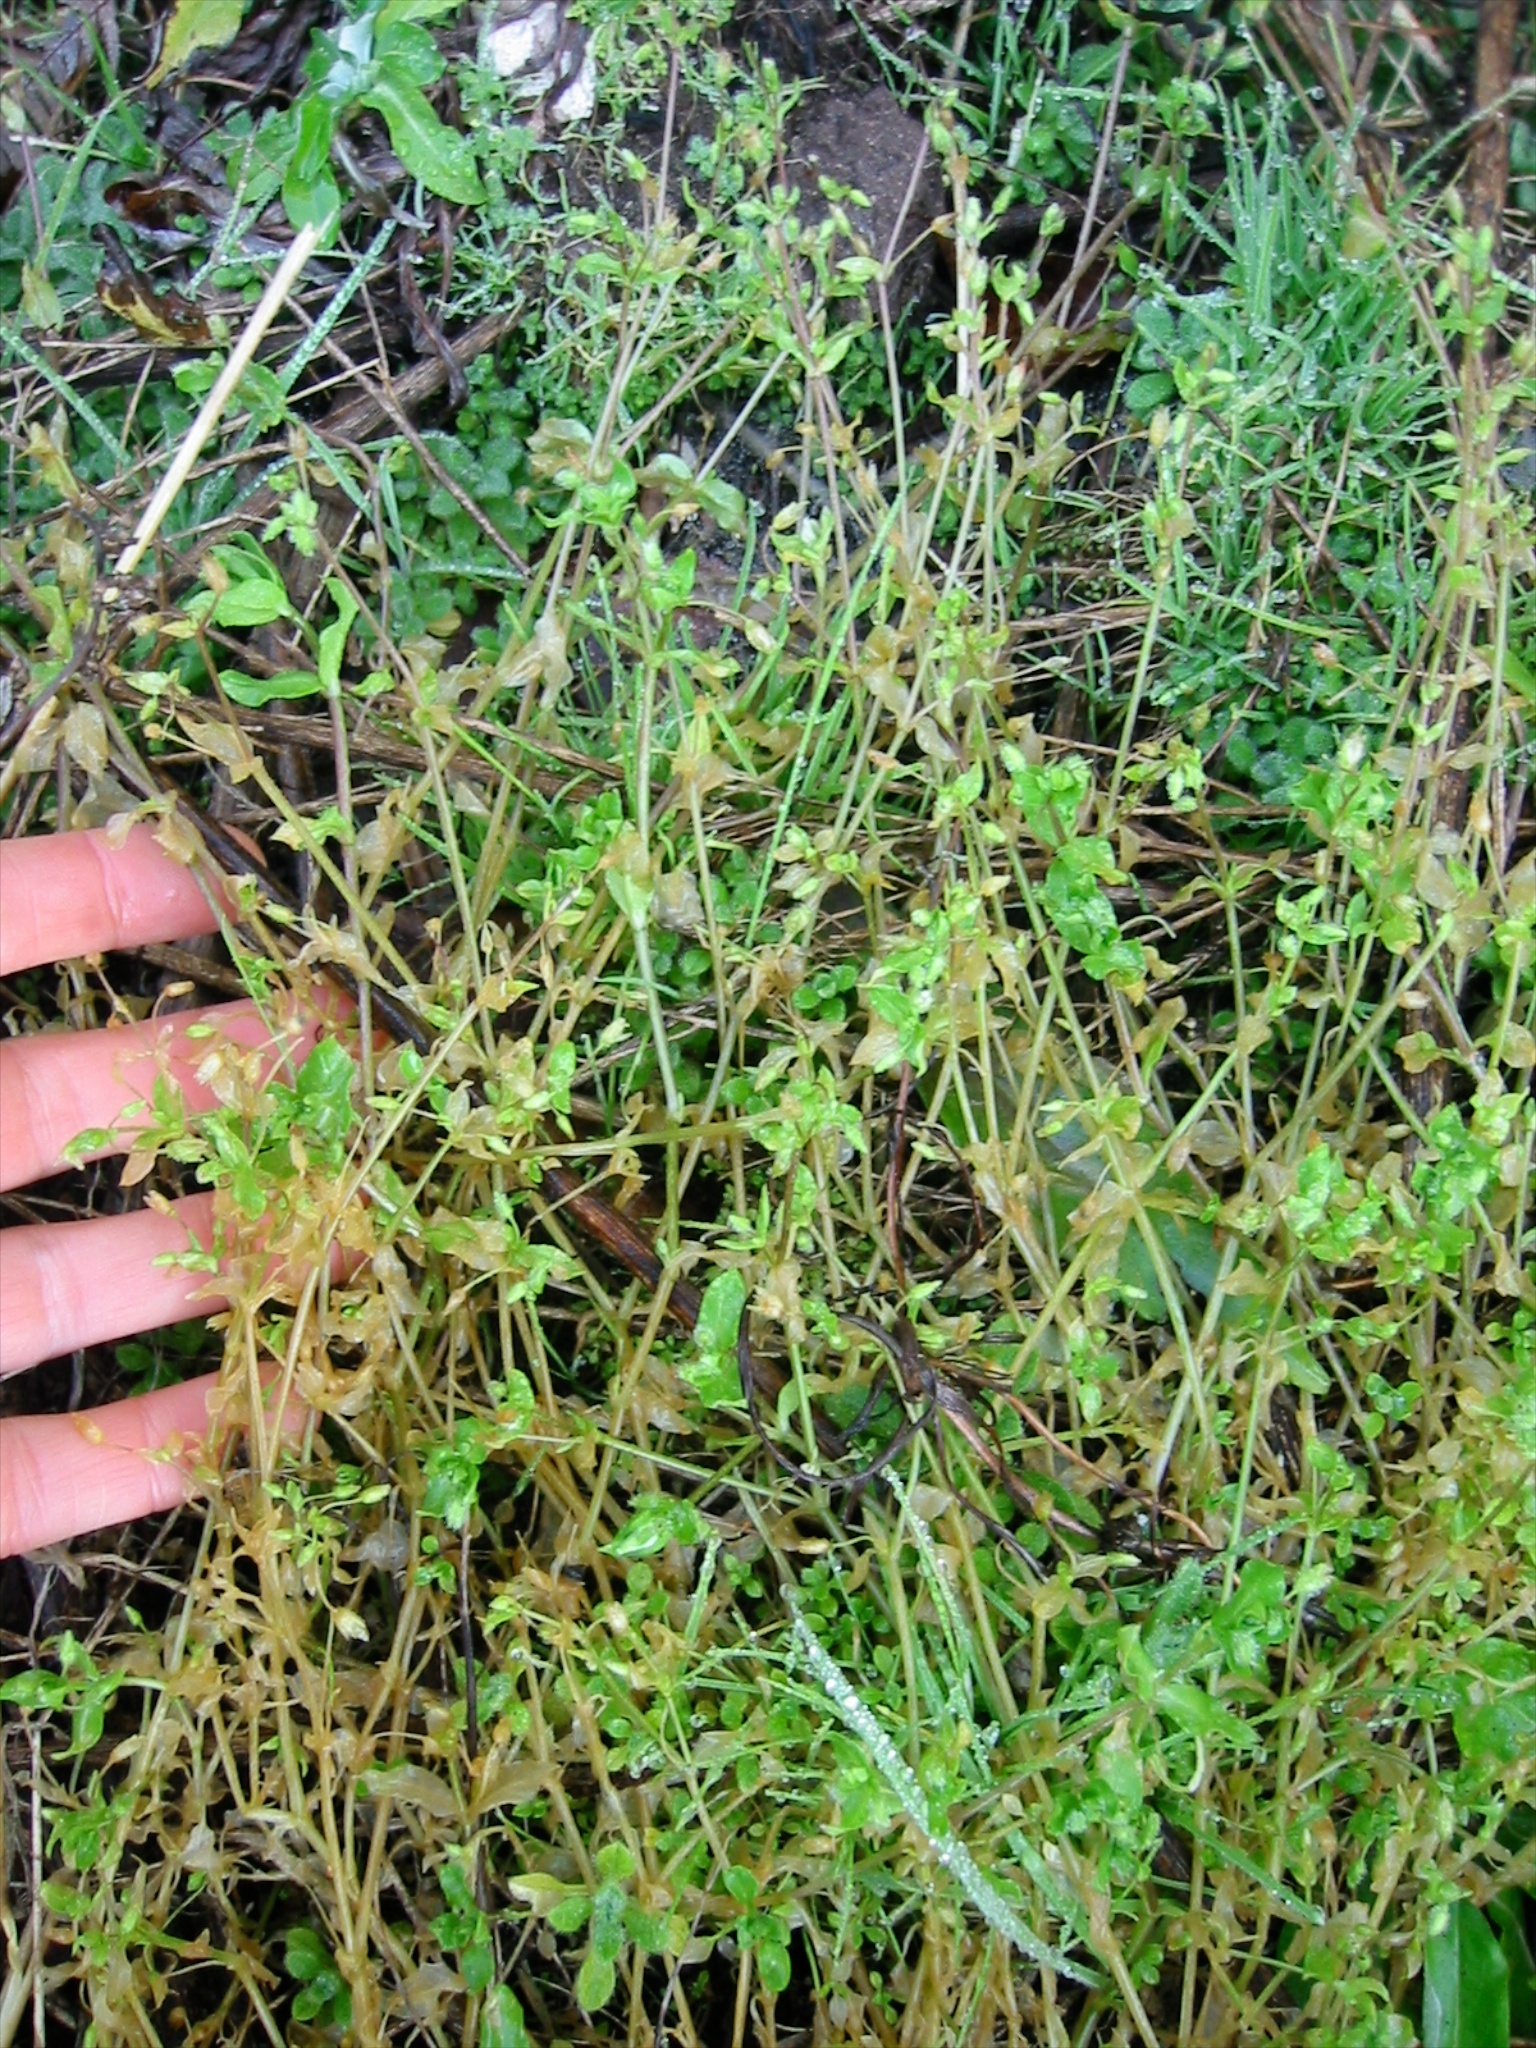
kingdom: Plantae
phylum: Tracheophyta
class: Magnoliopsida
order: Caryophyllales
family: Caryophyllaceae
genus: Stellaria
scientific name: Stellaria media
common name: Common chickweed
